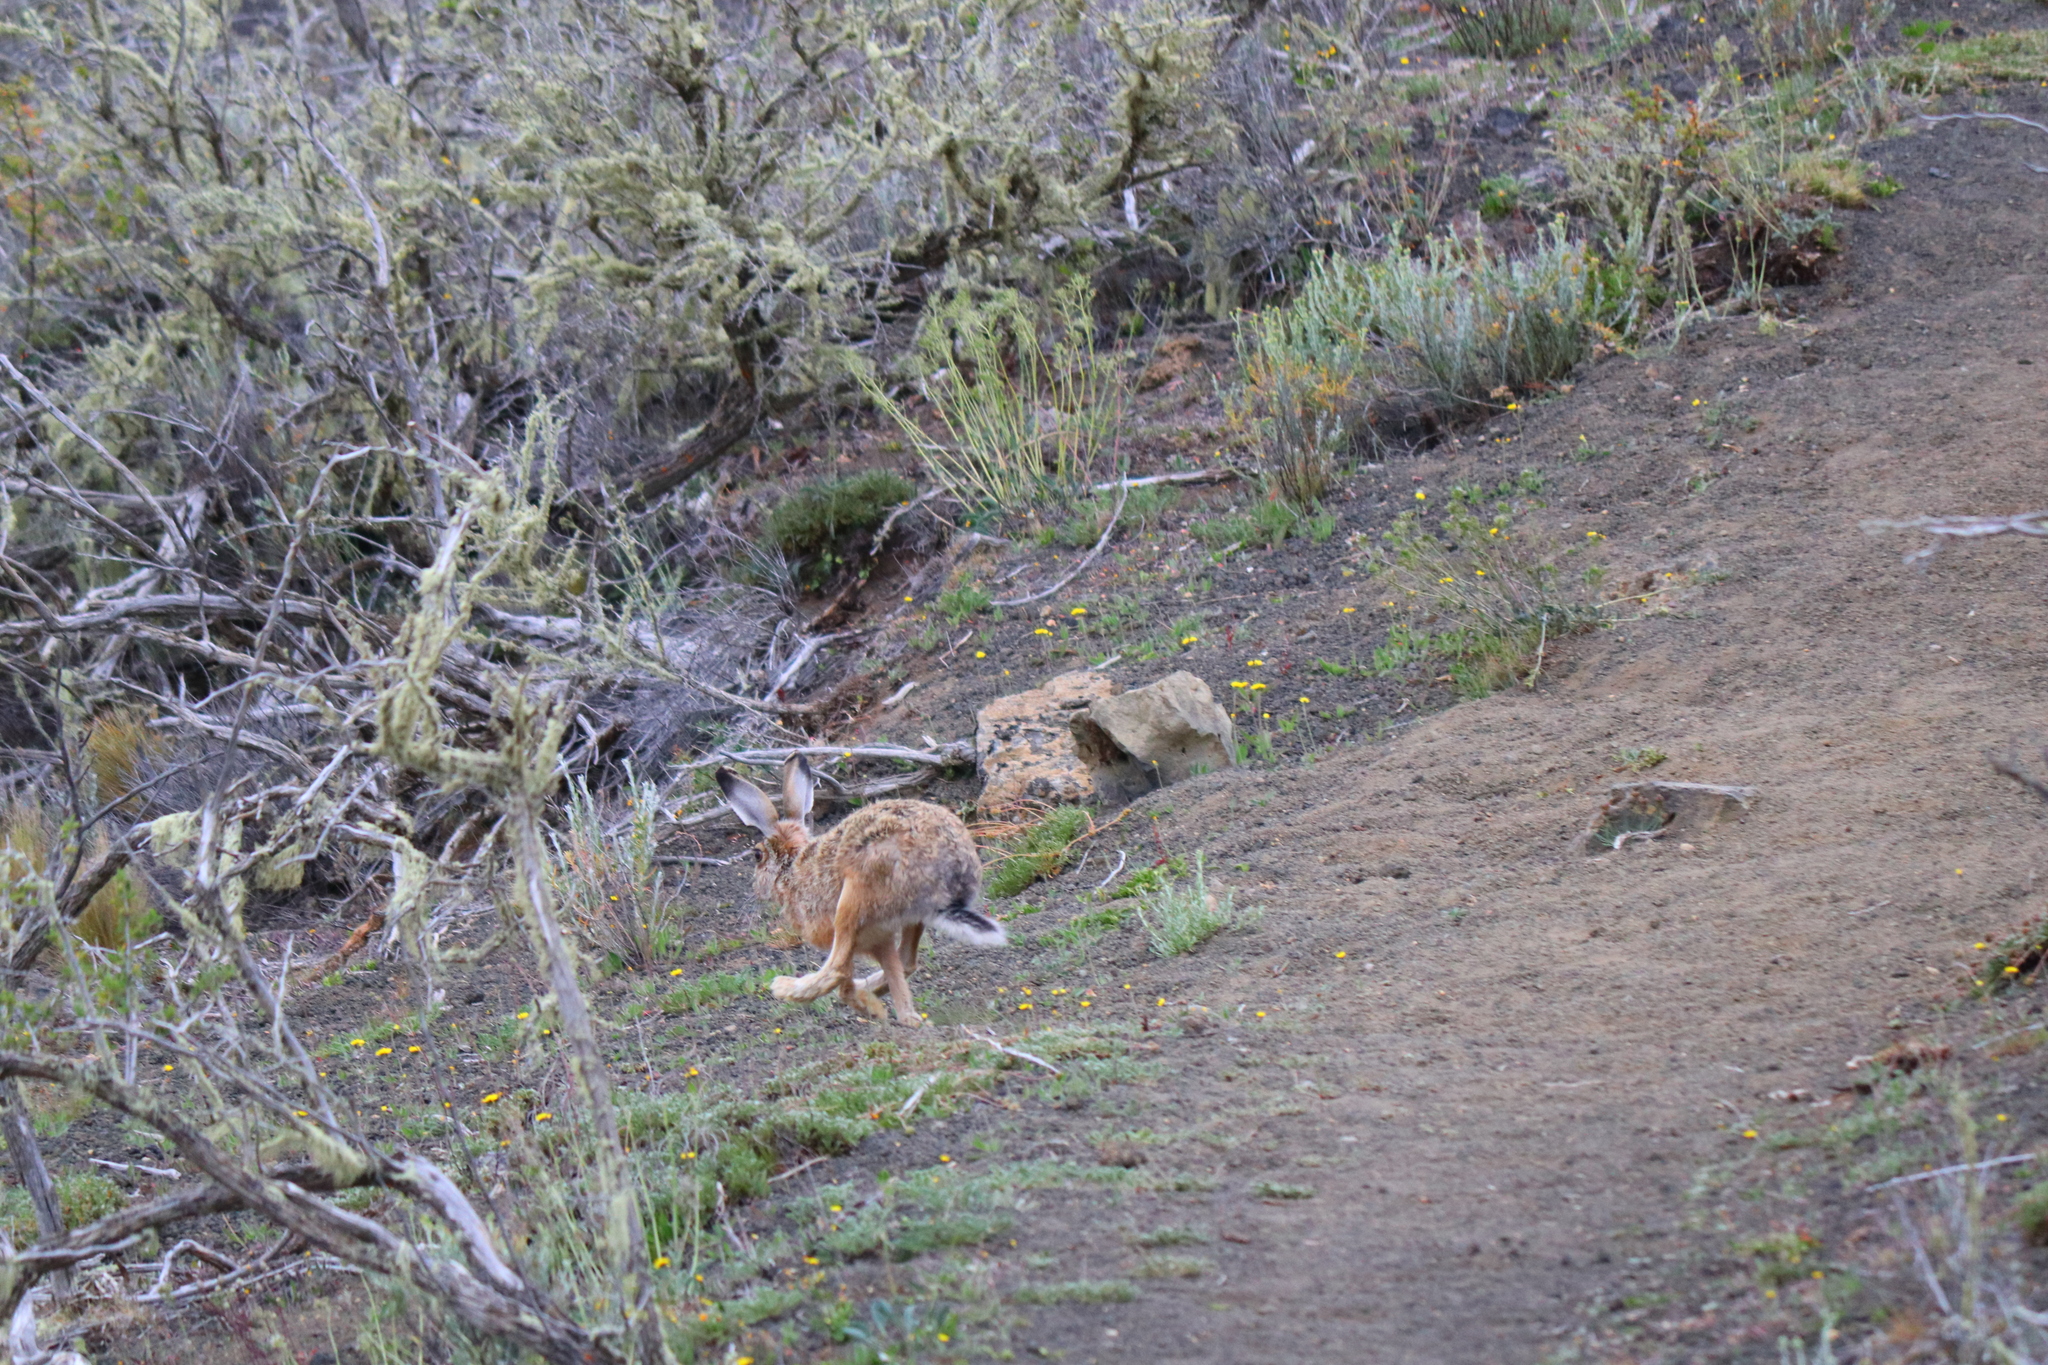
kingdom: Animalia
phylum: Chordata
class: Mammalia
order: Lagomorpha
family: Leporidae
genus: Lepus
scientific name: Lepus europaeus
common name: European hare
